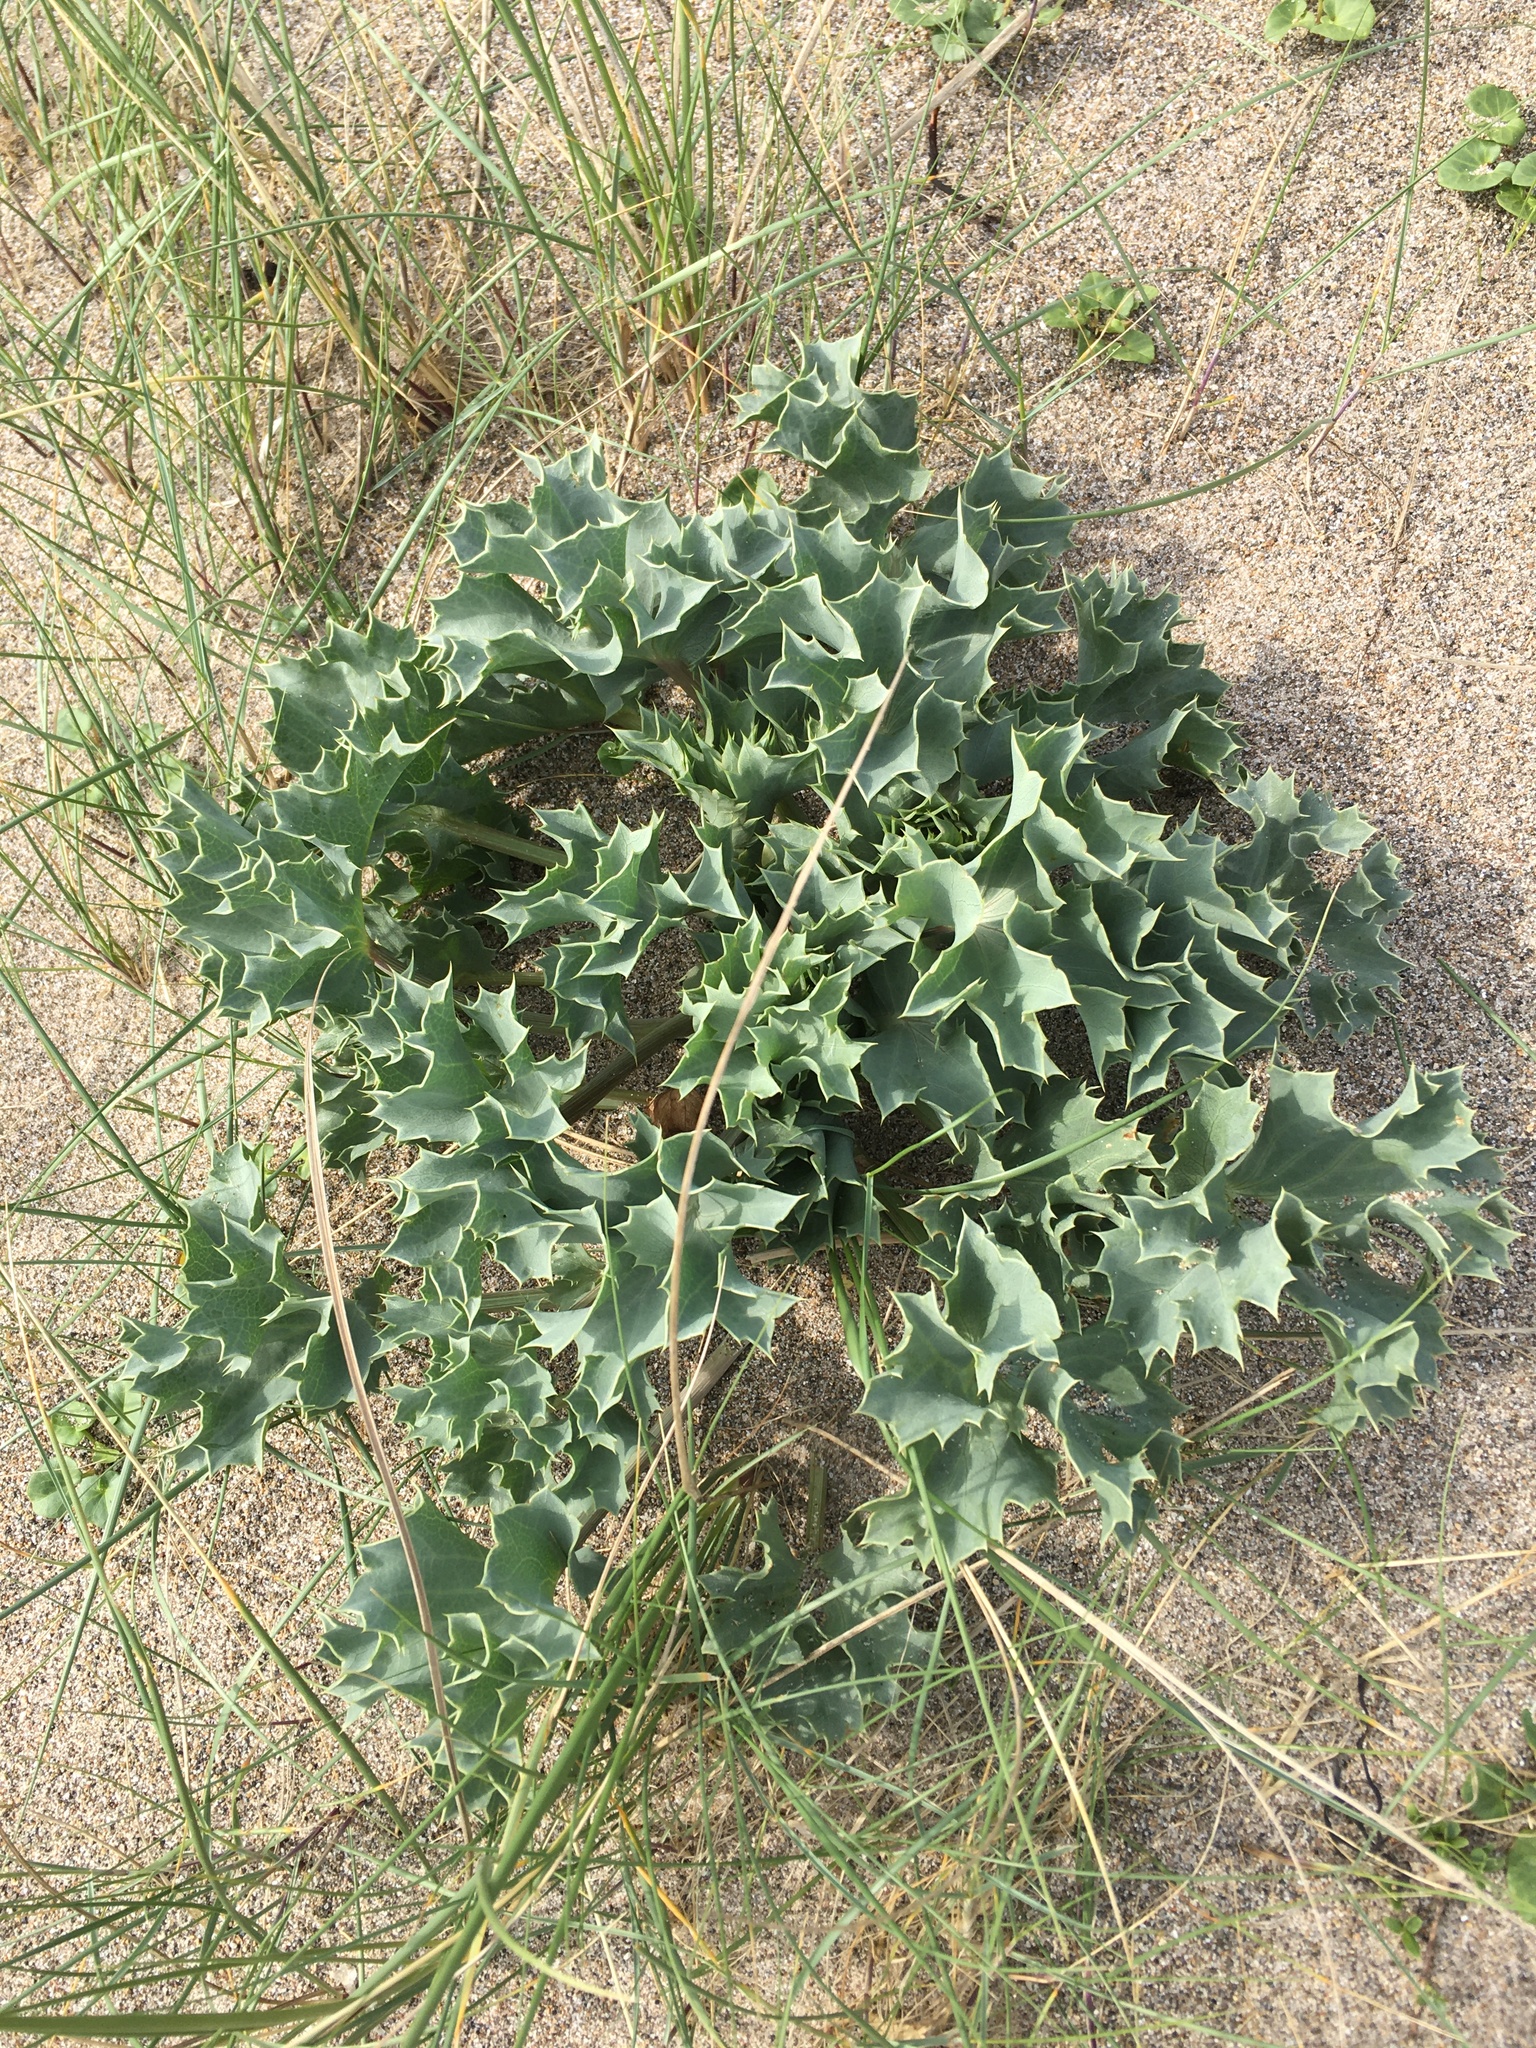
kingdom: Plantae
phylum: Tracheophyta
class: Magnoliopsida
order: Apiales
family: Apiaceae
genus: Eryngium
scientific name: Eryngium maritimum
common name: Sea-holly
